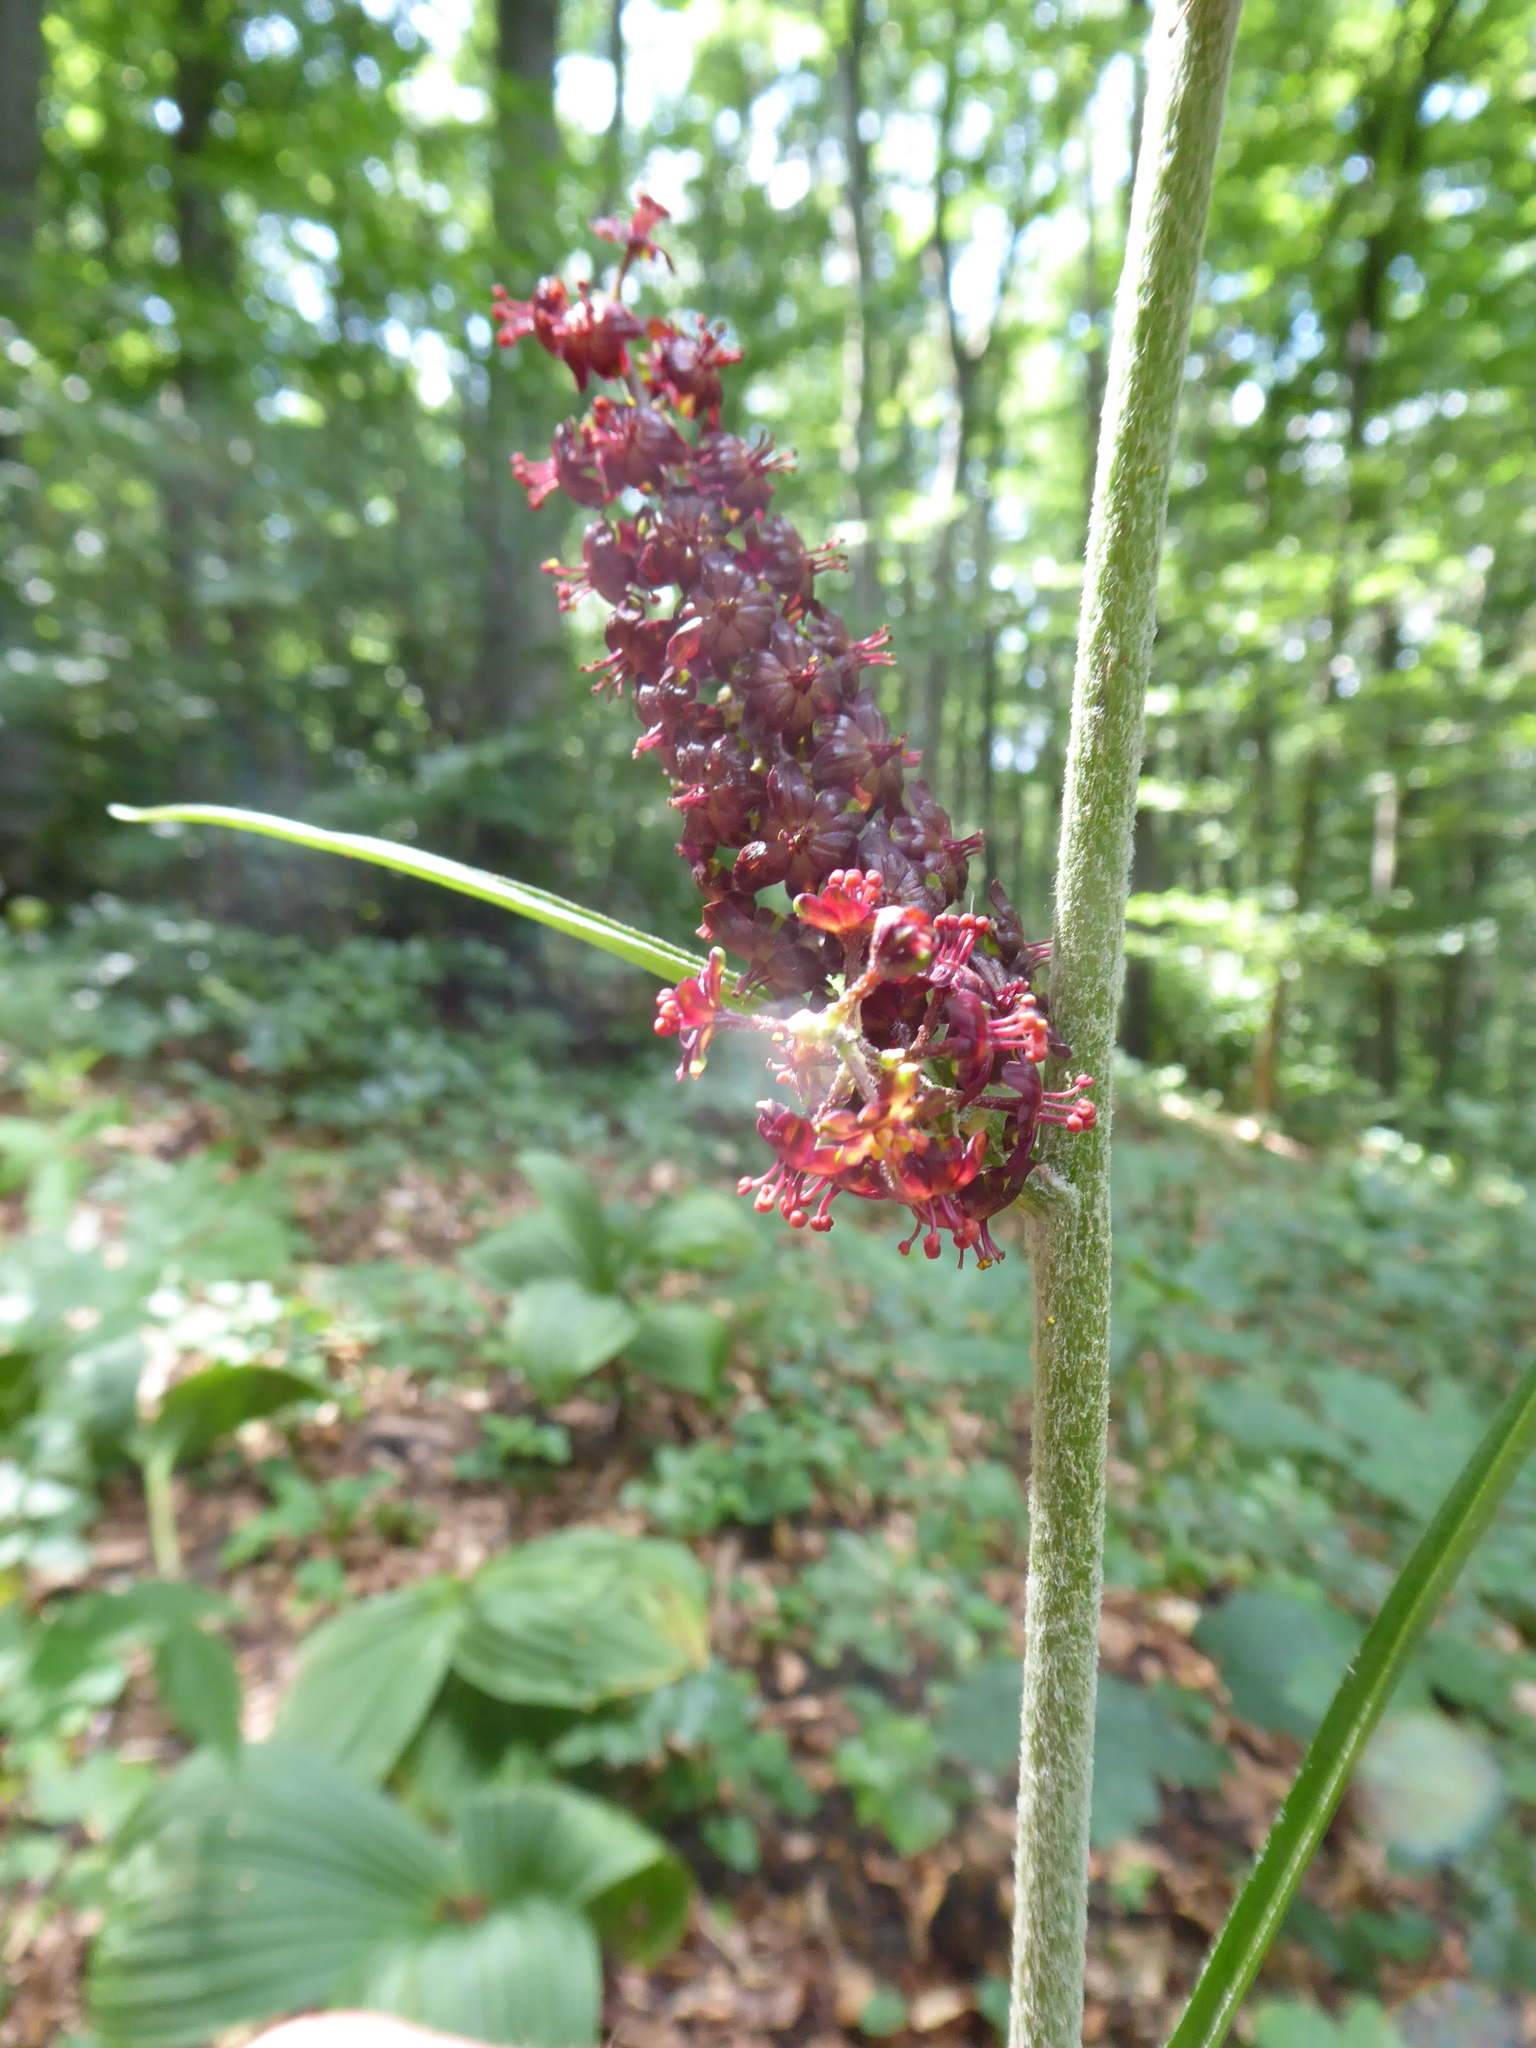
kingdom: Plantae
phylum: Tracheophyta
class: Liliopsida
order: Liliales
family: Melanthiaceae
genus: Veratrum
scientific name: Veratrum nigrum
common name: Black veratrum
